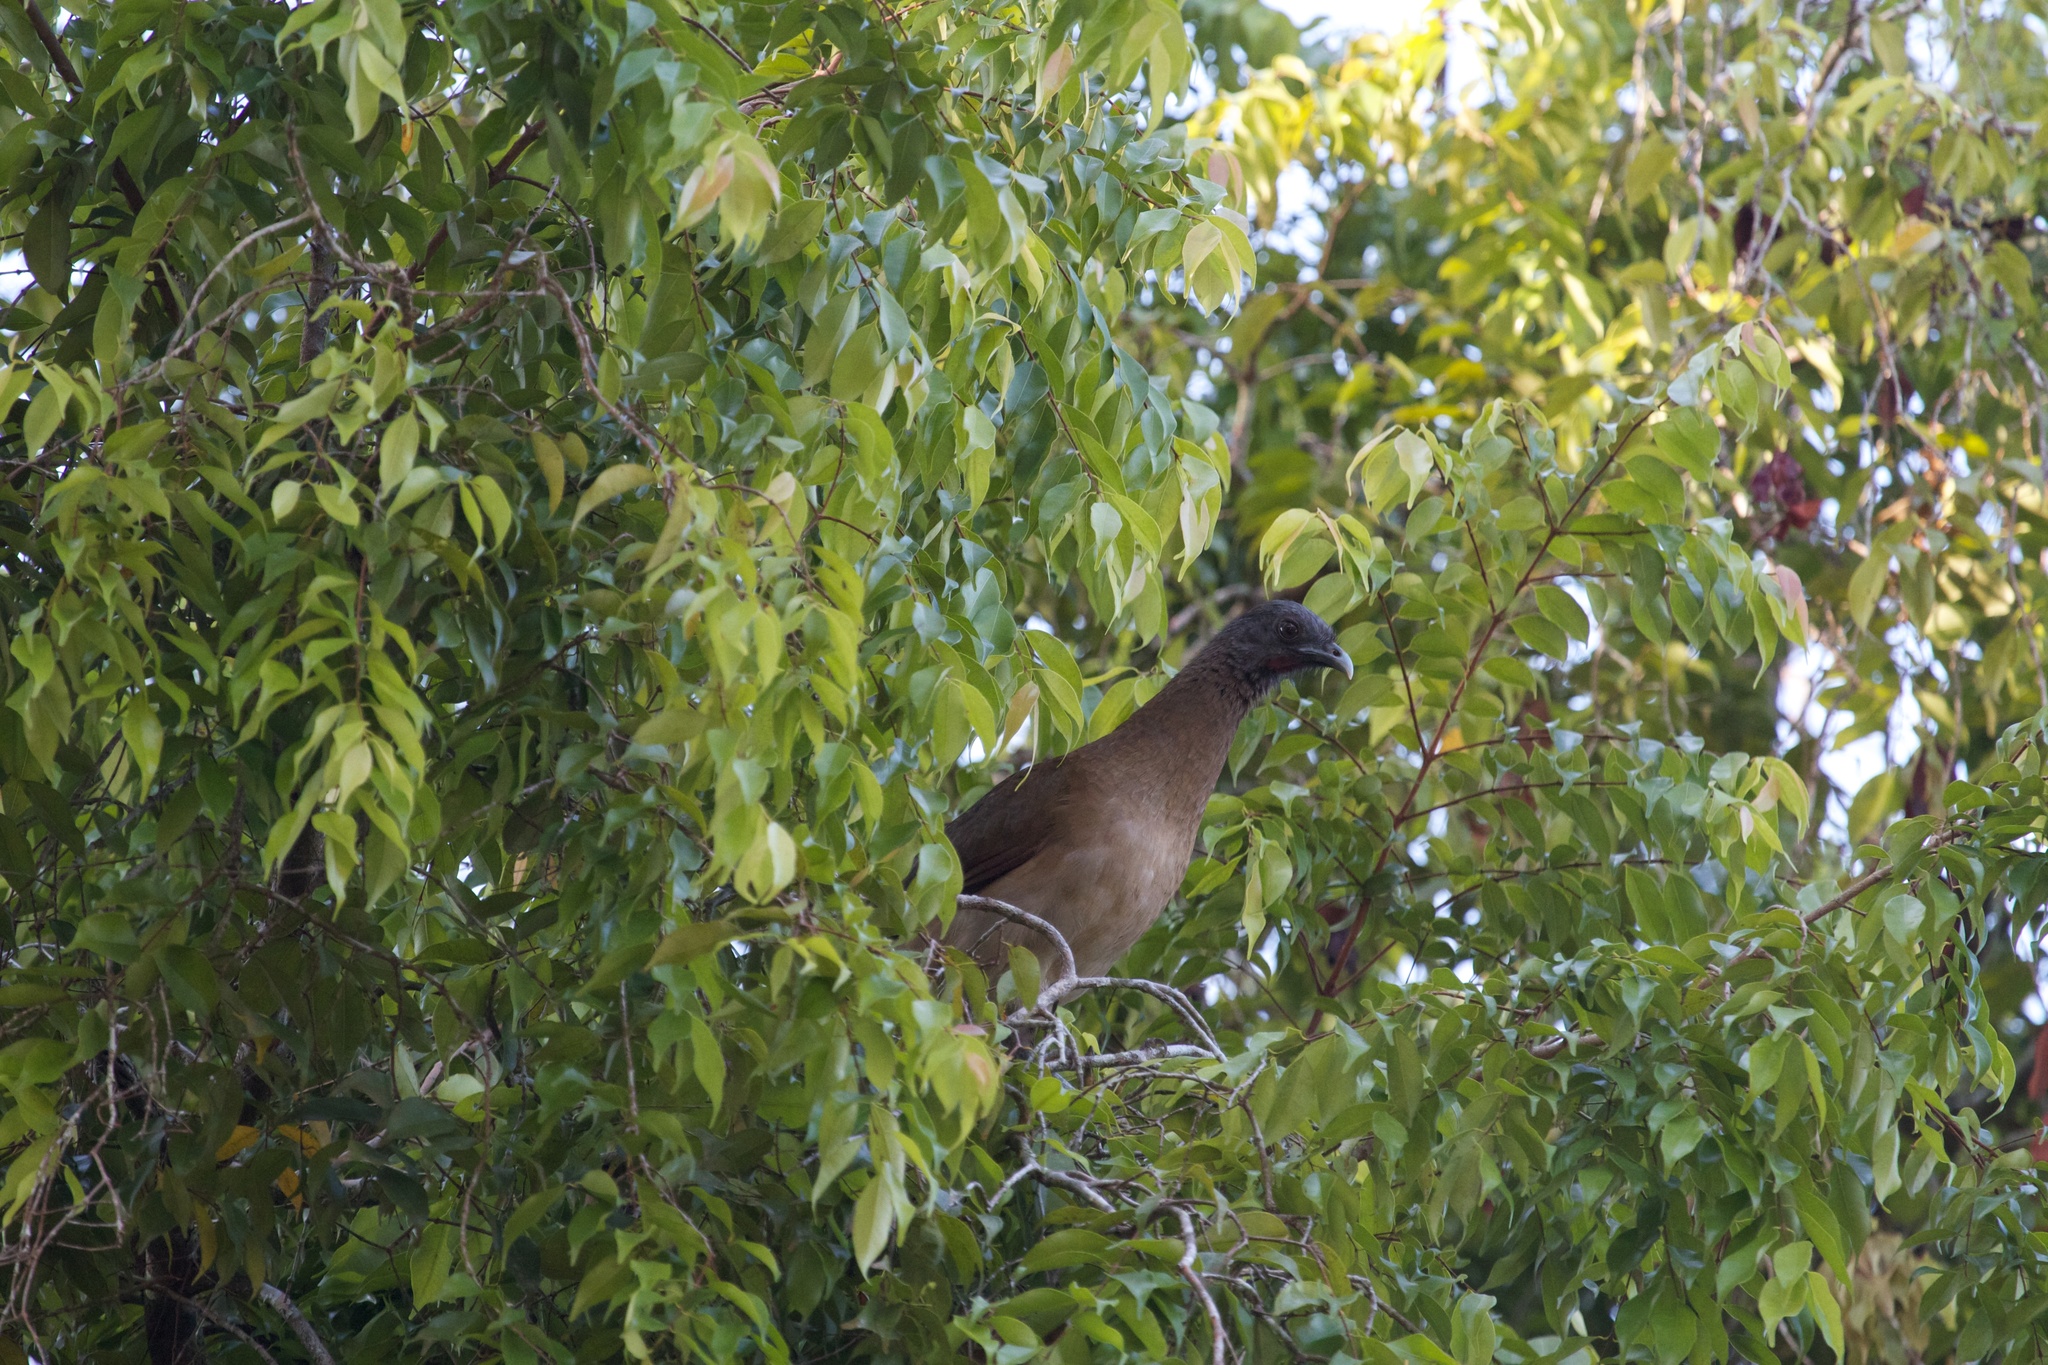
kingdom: Animalia
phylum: Chordata
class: Aves
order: Galliformes
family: Cracidae
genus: Ortalis
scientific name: Ortalis cinereiceps
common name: Grey-headed chachalaca
